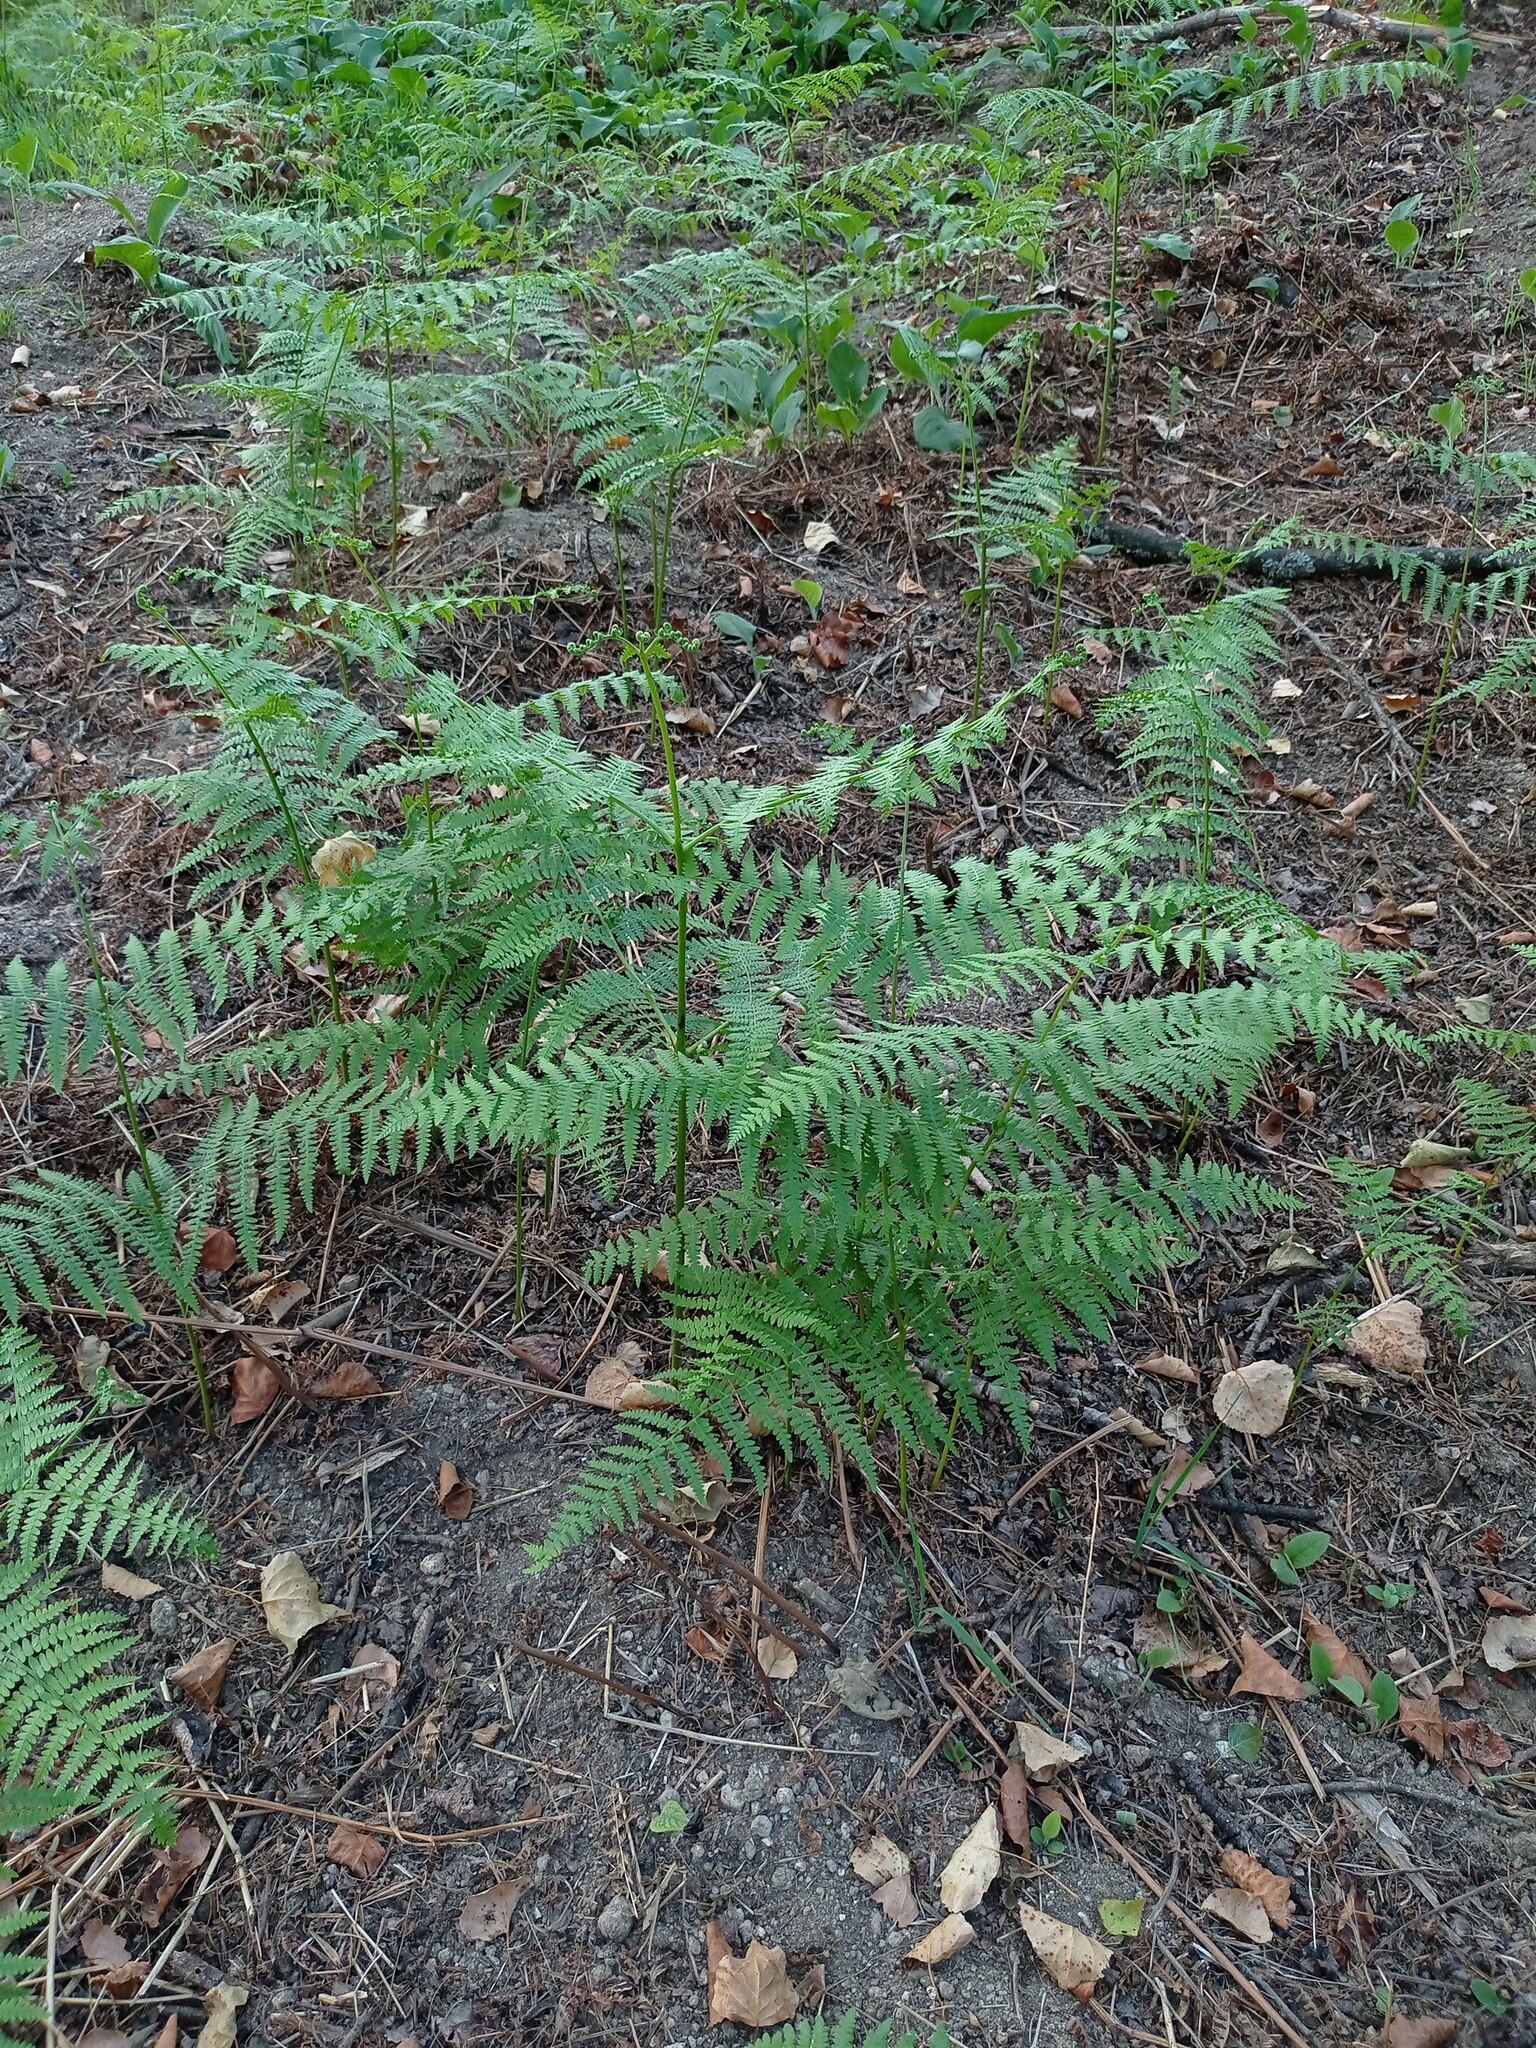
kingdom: Plantae
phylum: Tracheophyta
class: Polypodiopsida
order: Polypodiales
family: Dennstaedtiaceae
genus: Pteridium
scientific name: Pteridium aquilinum
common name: Bracken
